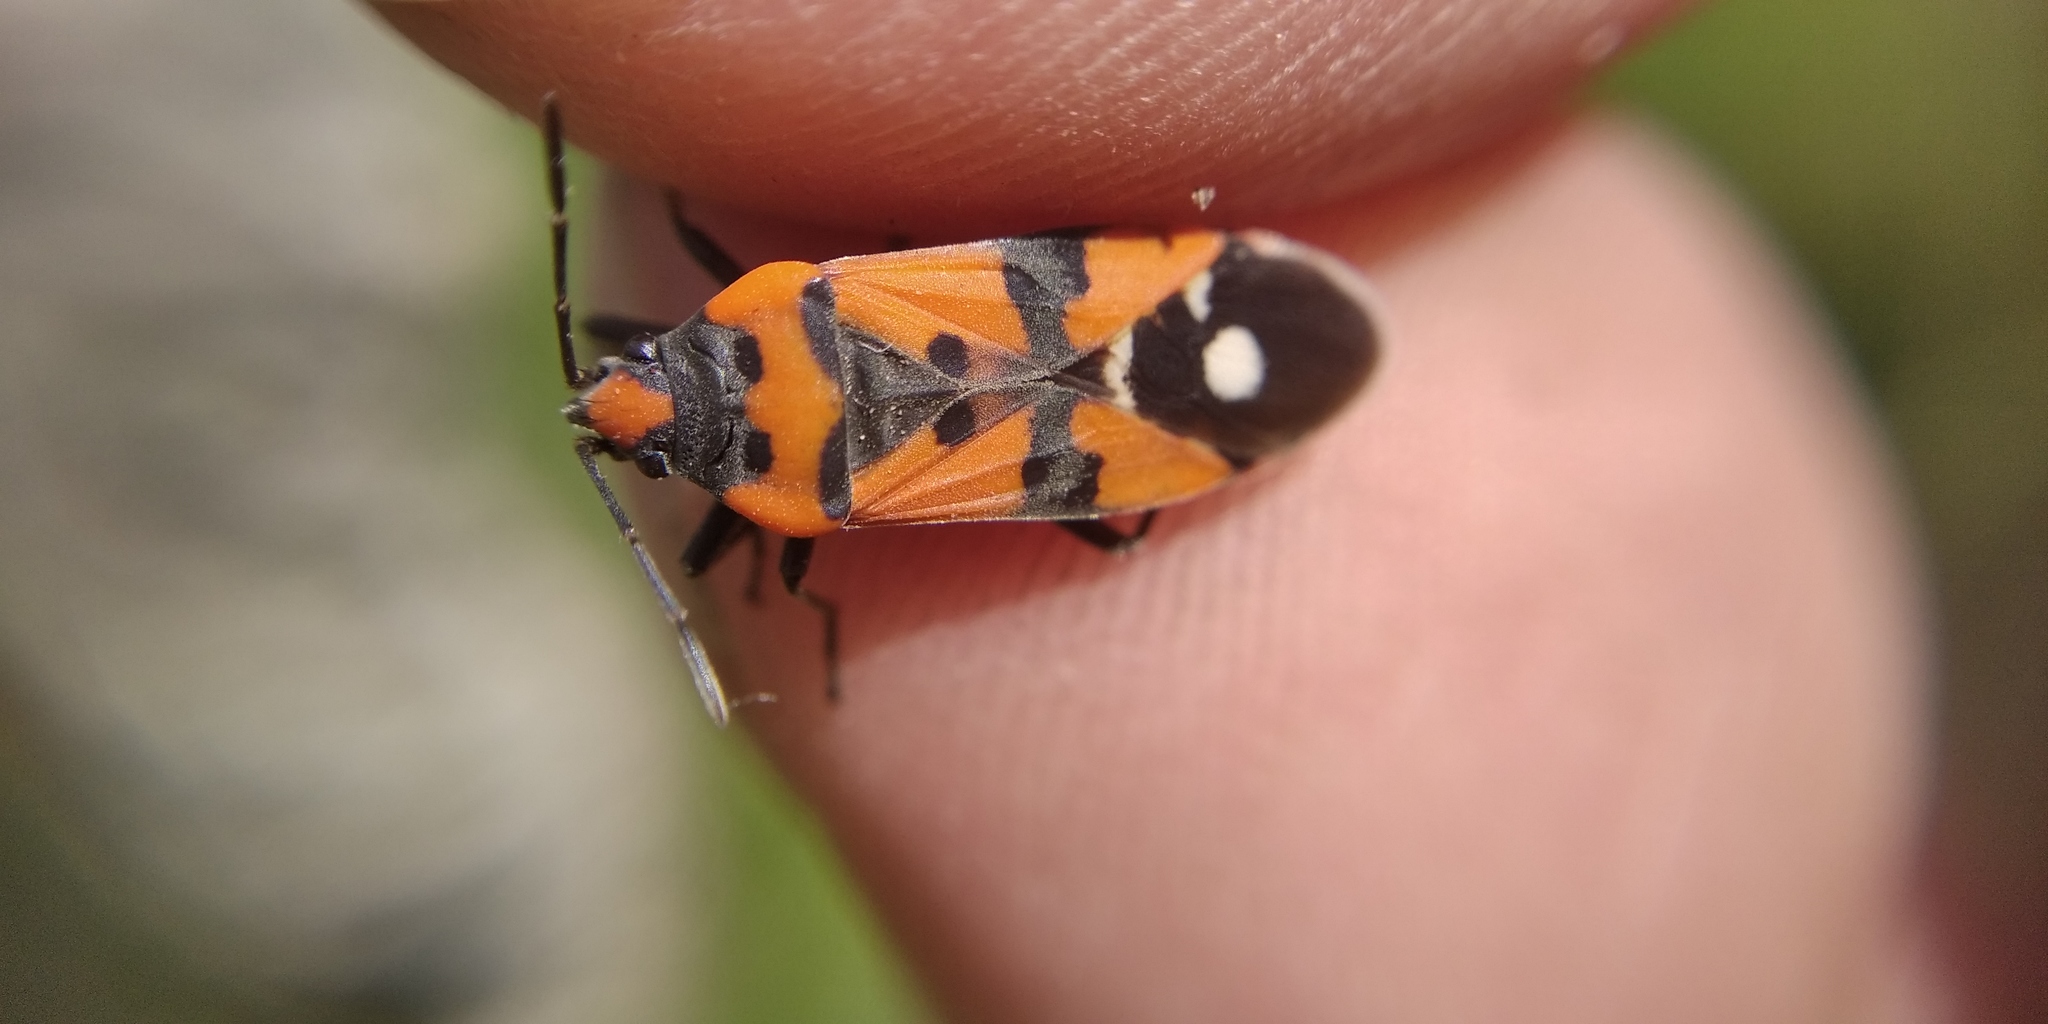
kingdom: Animalia
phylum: Arthropoda
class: Insecta
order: Hemiptera
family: Lygaeidae
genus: Lygaeus
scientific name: Lygaeus equestris
